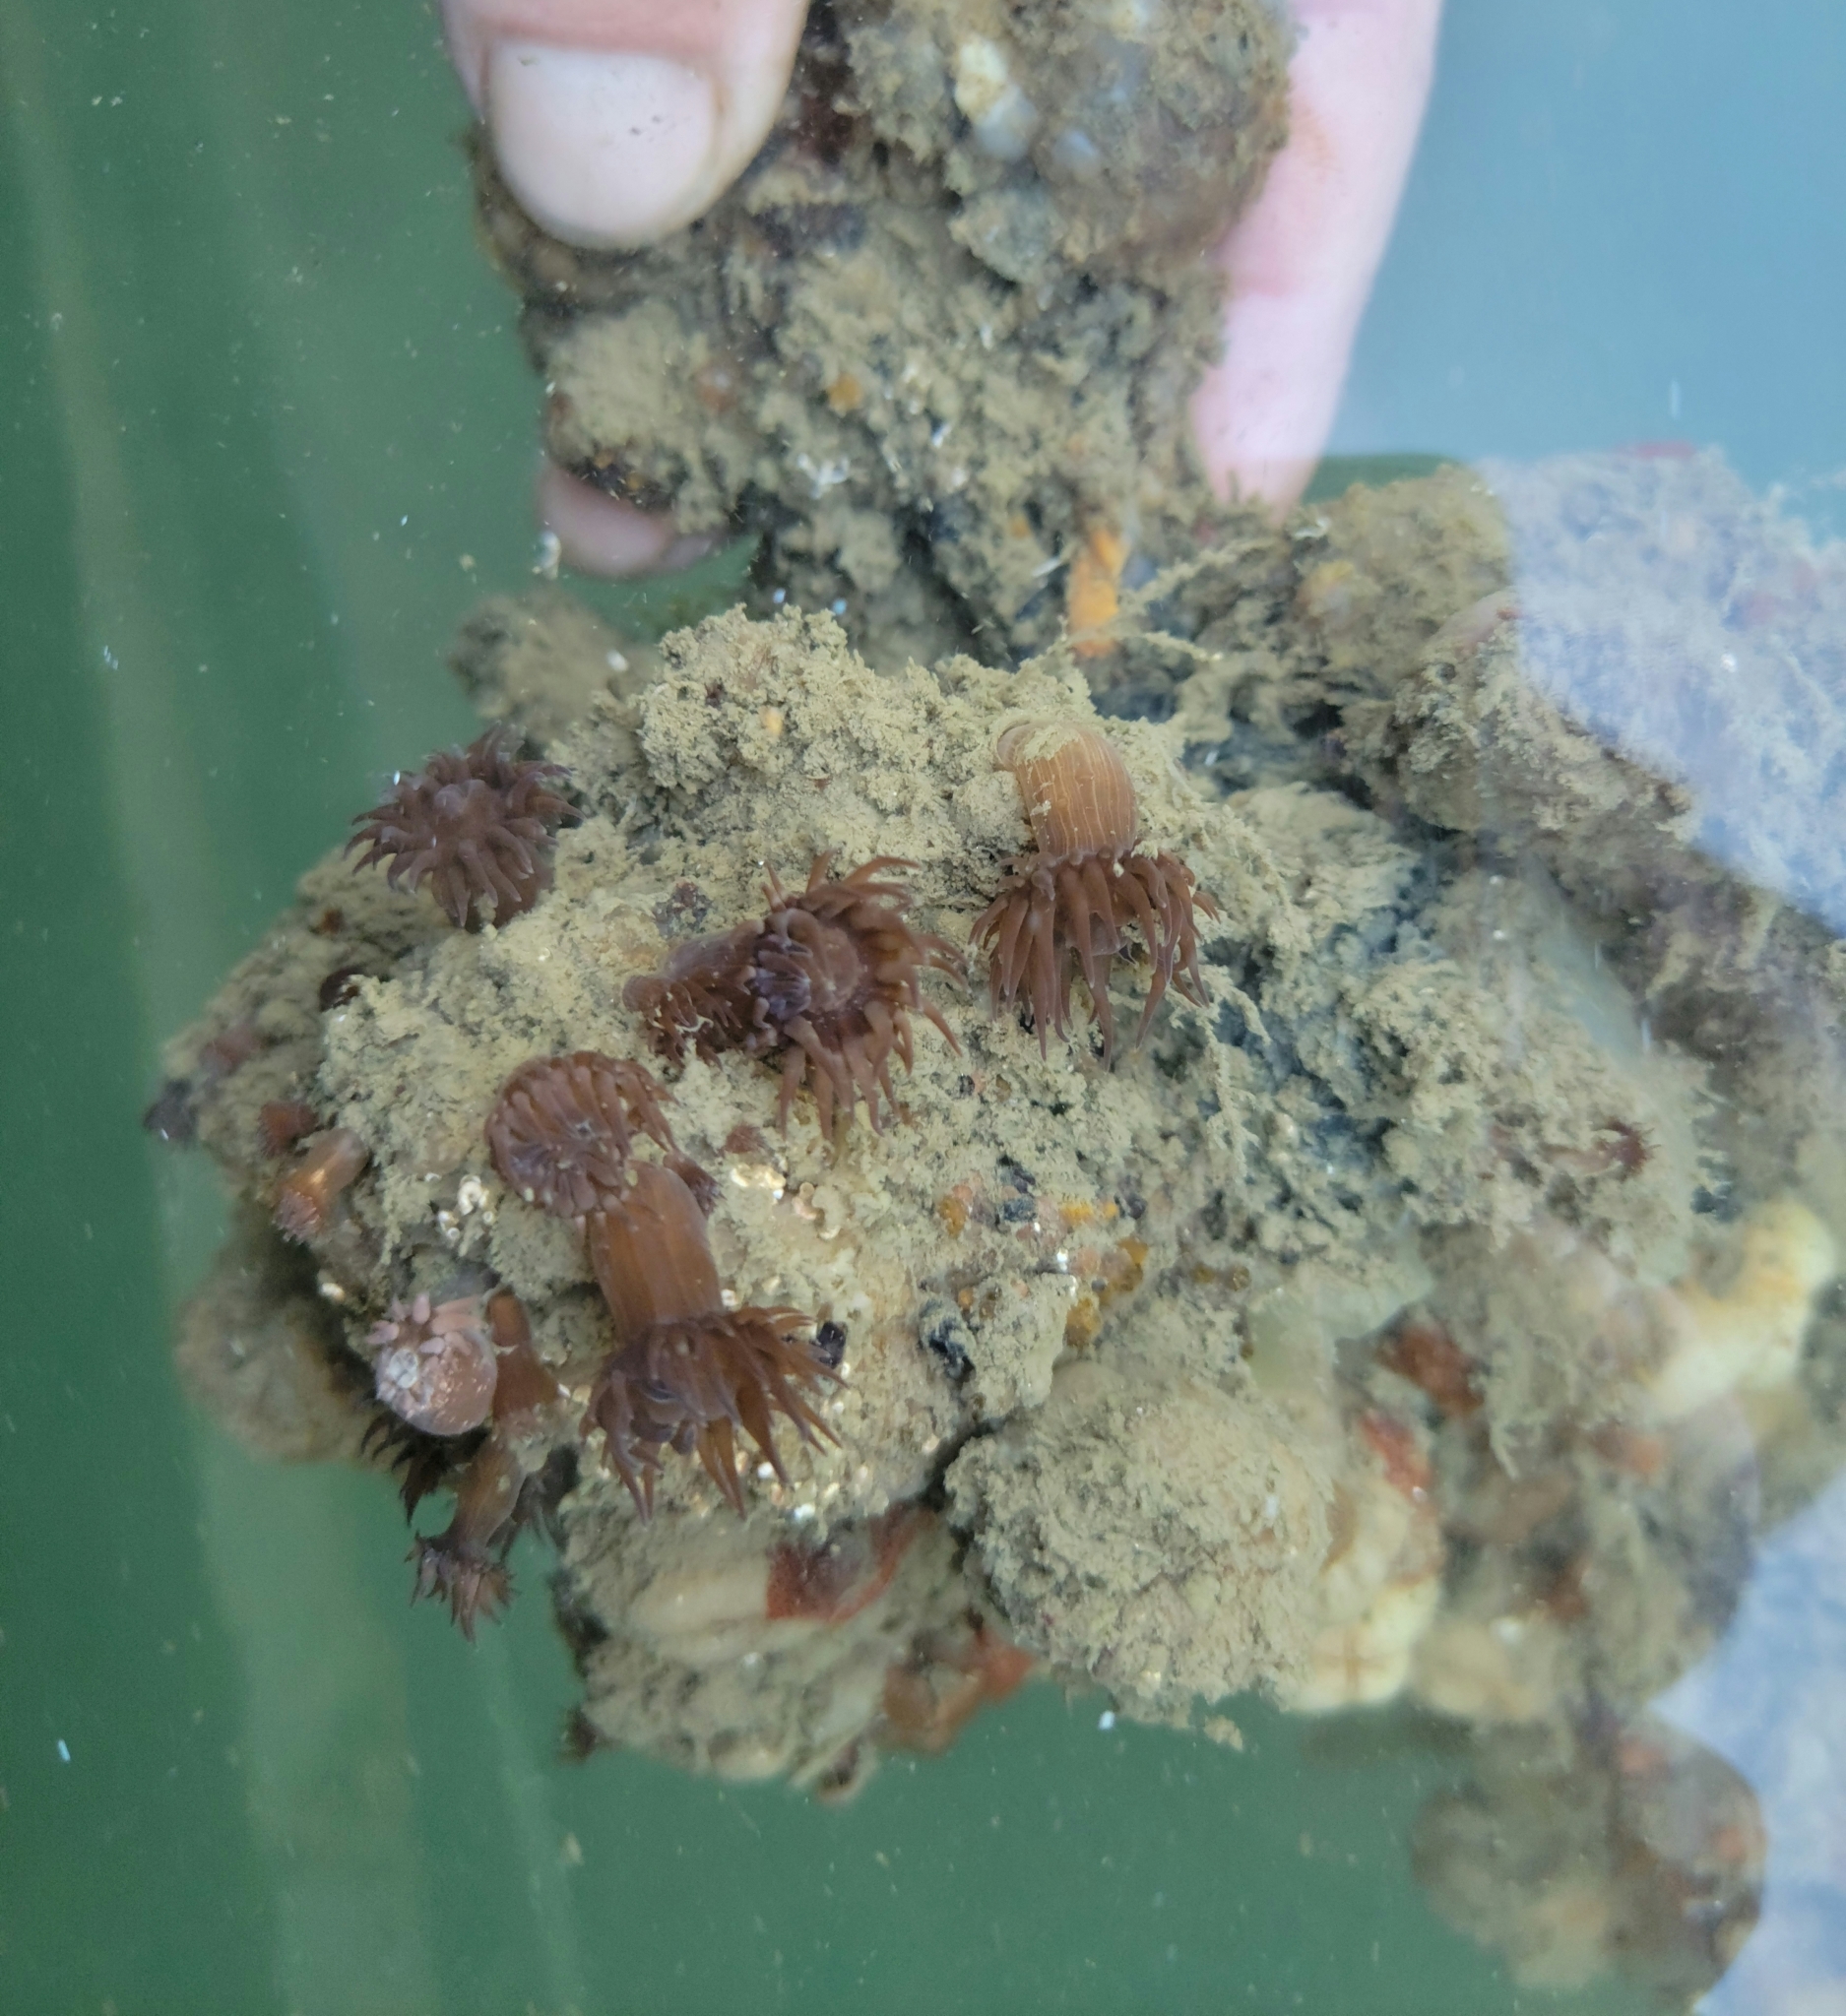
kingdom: Animalia
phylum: Cnidaria
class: Anthozoa
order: Actiniaria
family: Aiptasiidae
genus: Exaiptasia
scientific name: Exaiptasia diaphana
